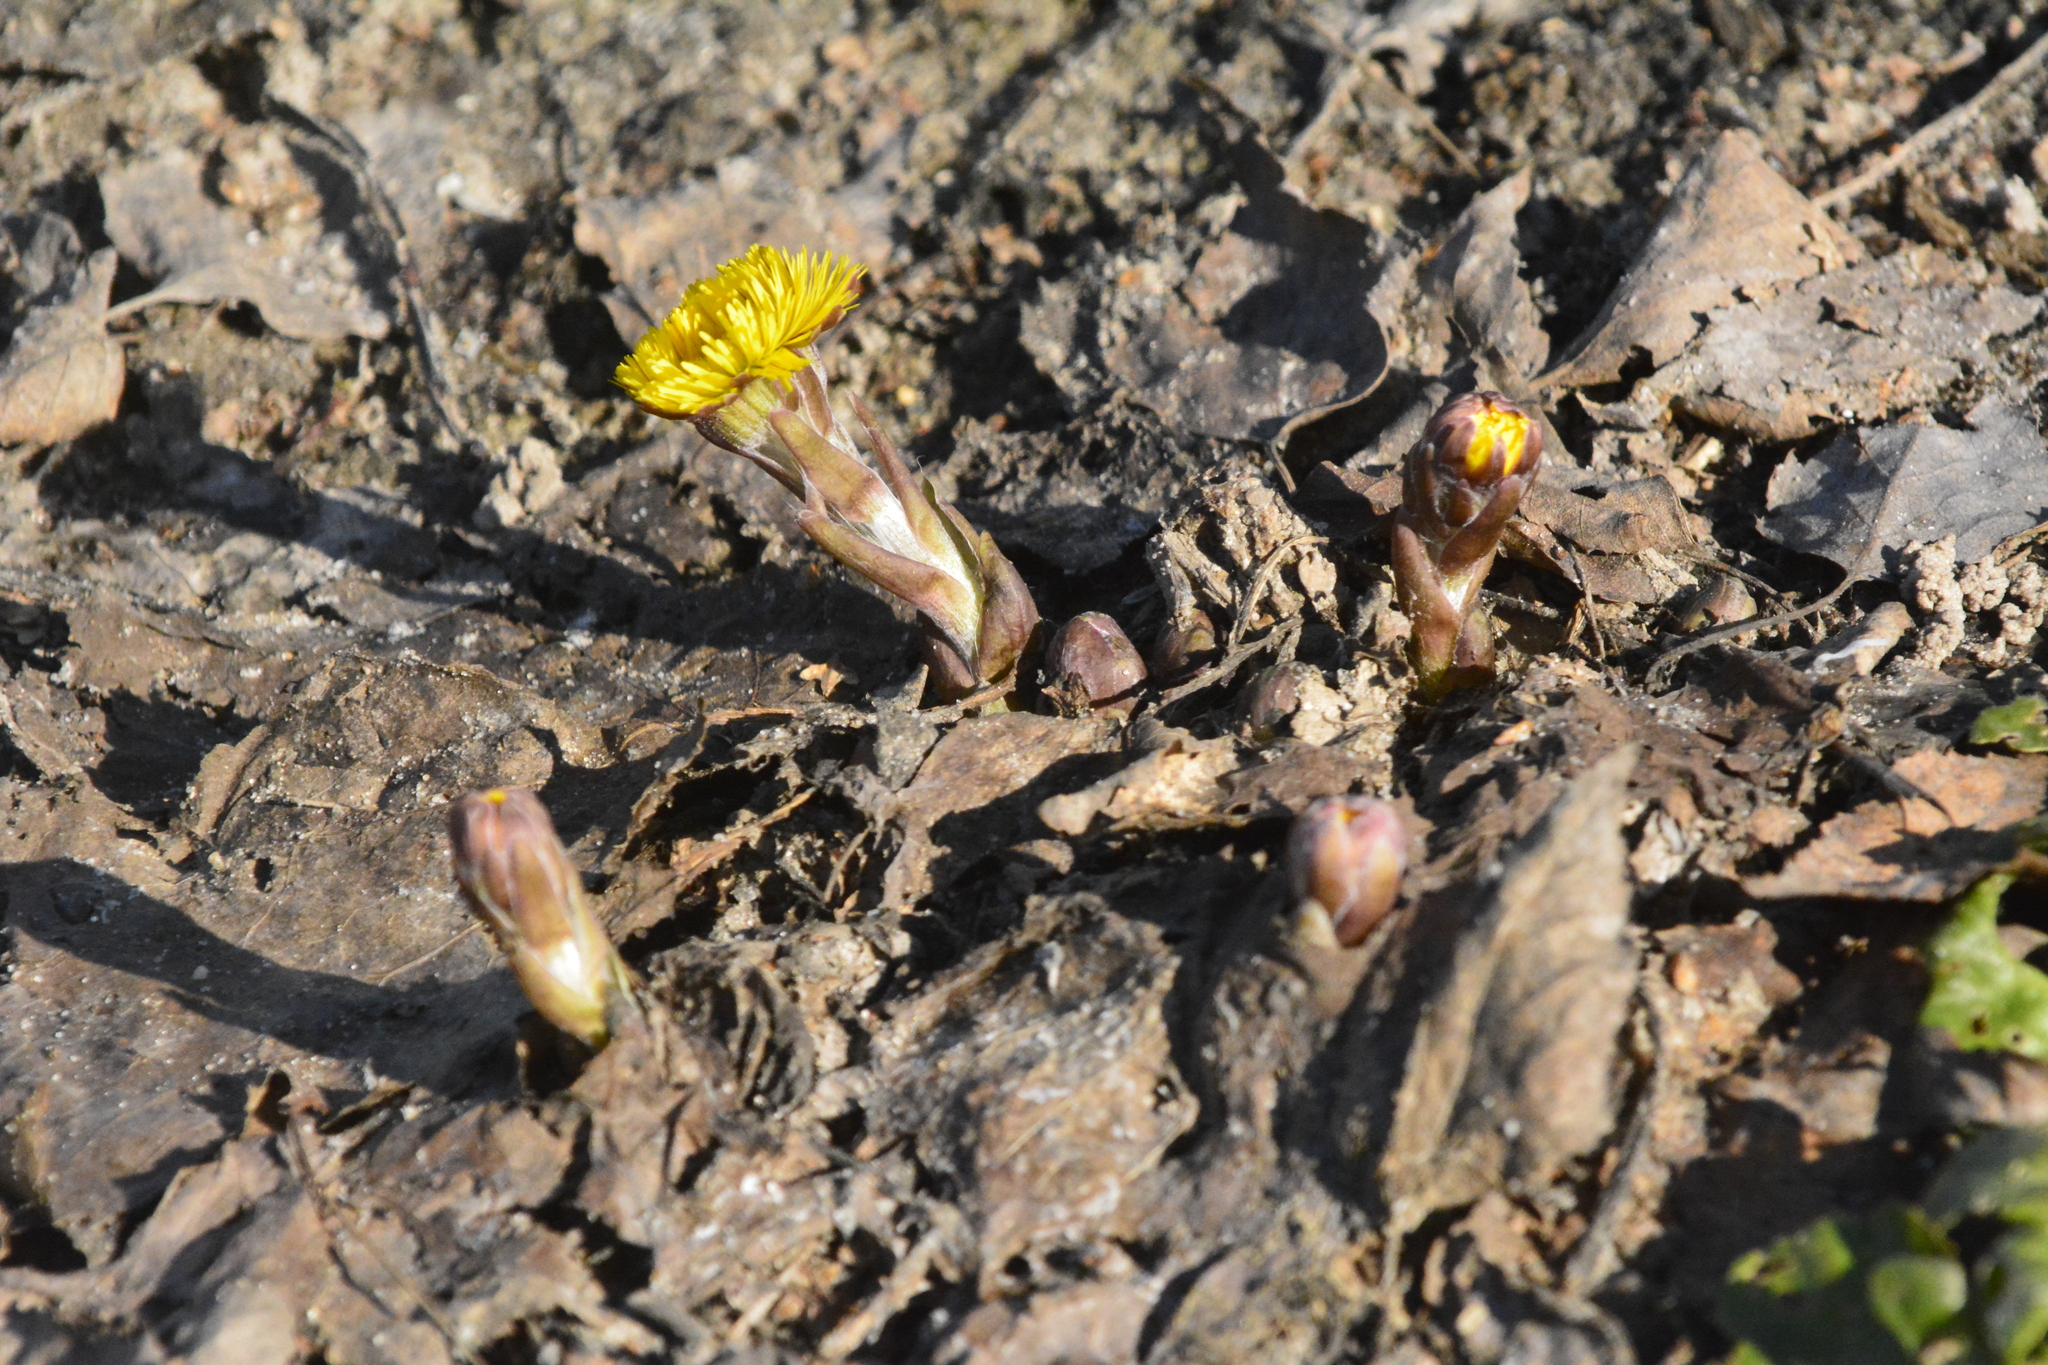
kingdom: Plantae
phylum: Tracheophyta
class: Magnoliopsida
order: Asterales
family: Asteraceae
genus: Tussilago
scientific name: Tussilago farfara
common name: Coltsfoot
